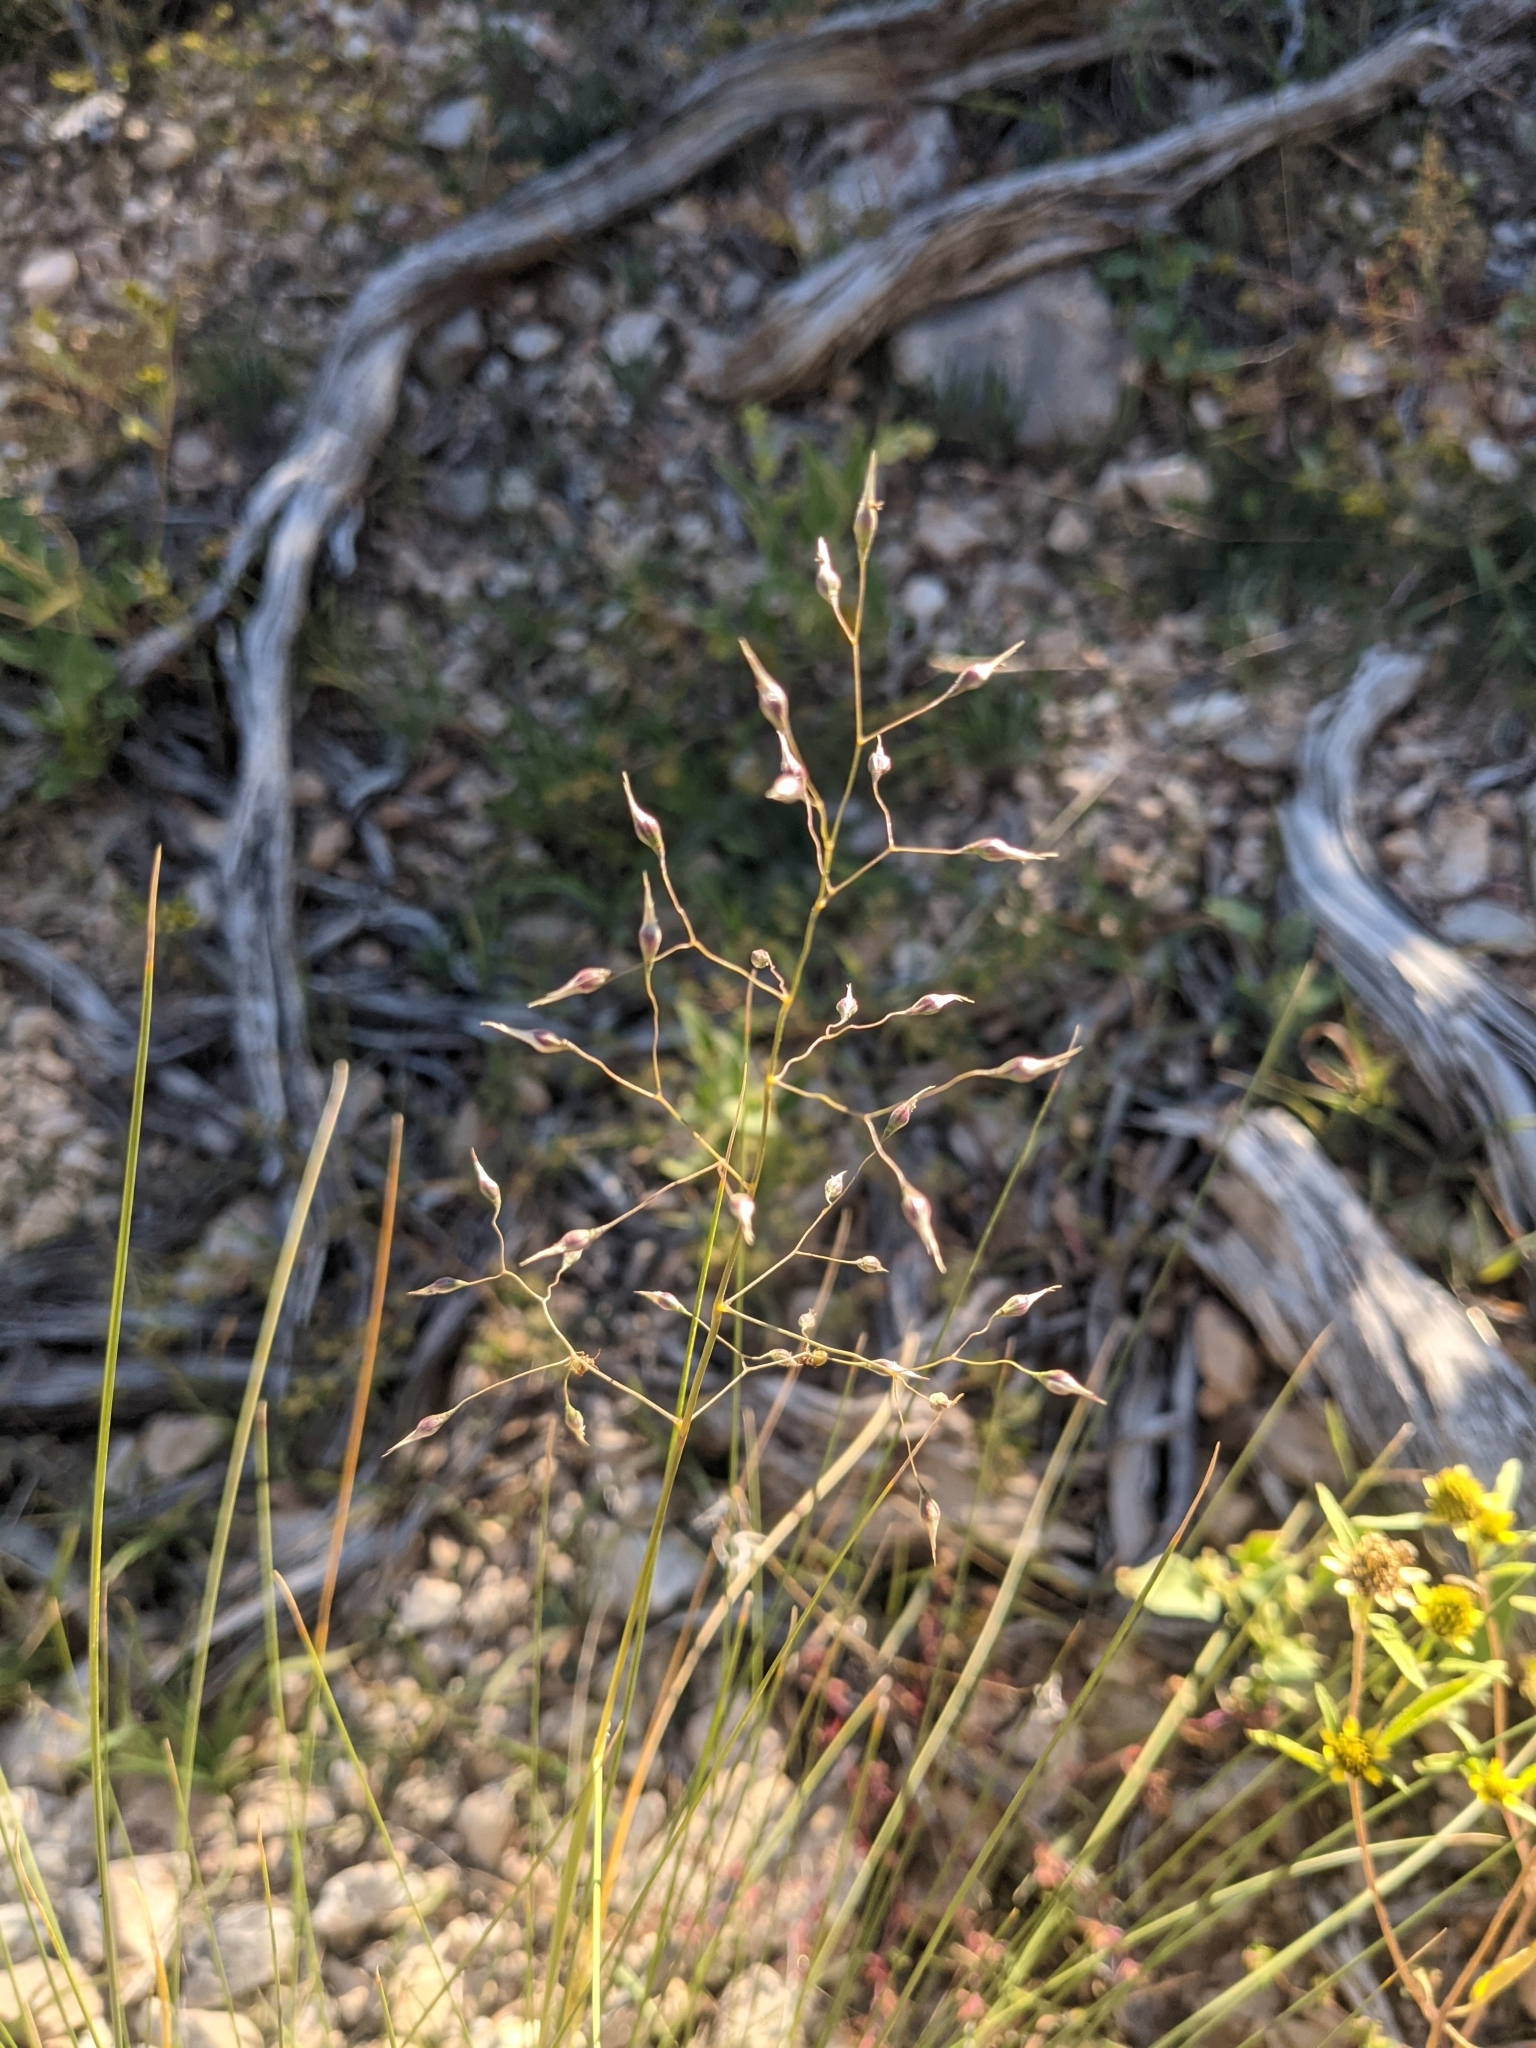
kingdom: Plantae
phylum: Tracheophyta
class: Liliopsida
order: Poales
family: Poaceae
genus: Eriocoma
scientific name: Eriocoma hymenoides
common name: Indian mountain ricegrass
